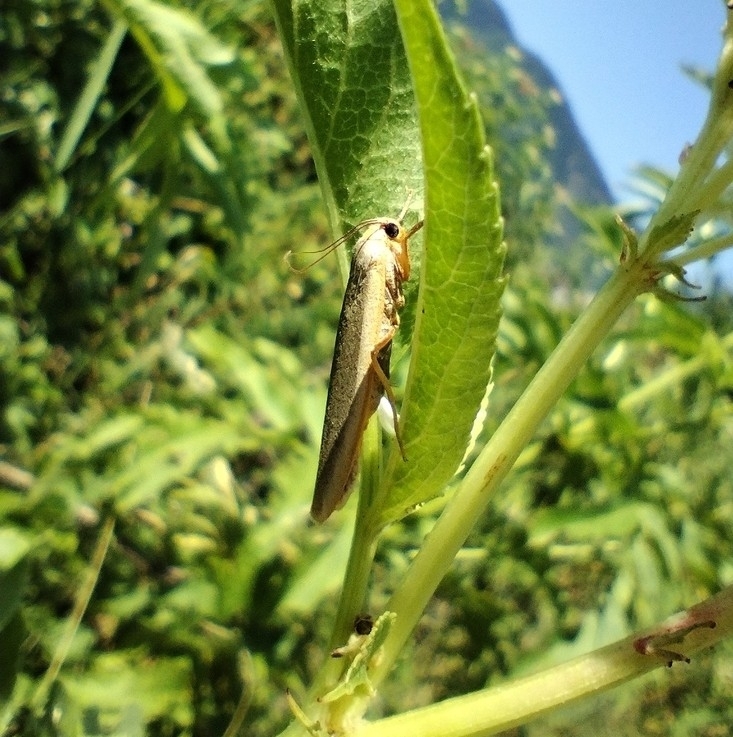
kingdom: Animalia
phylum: Arthropoda
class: Insecta
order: Lepidoptera
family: Erebidae
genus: Eilema
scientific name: Eilema
